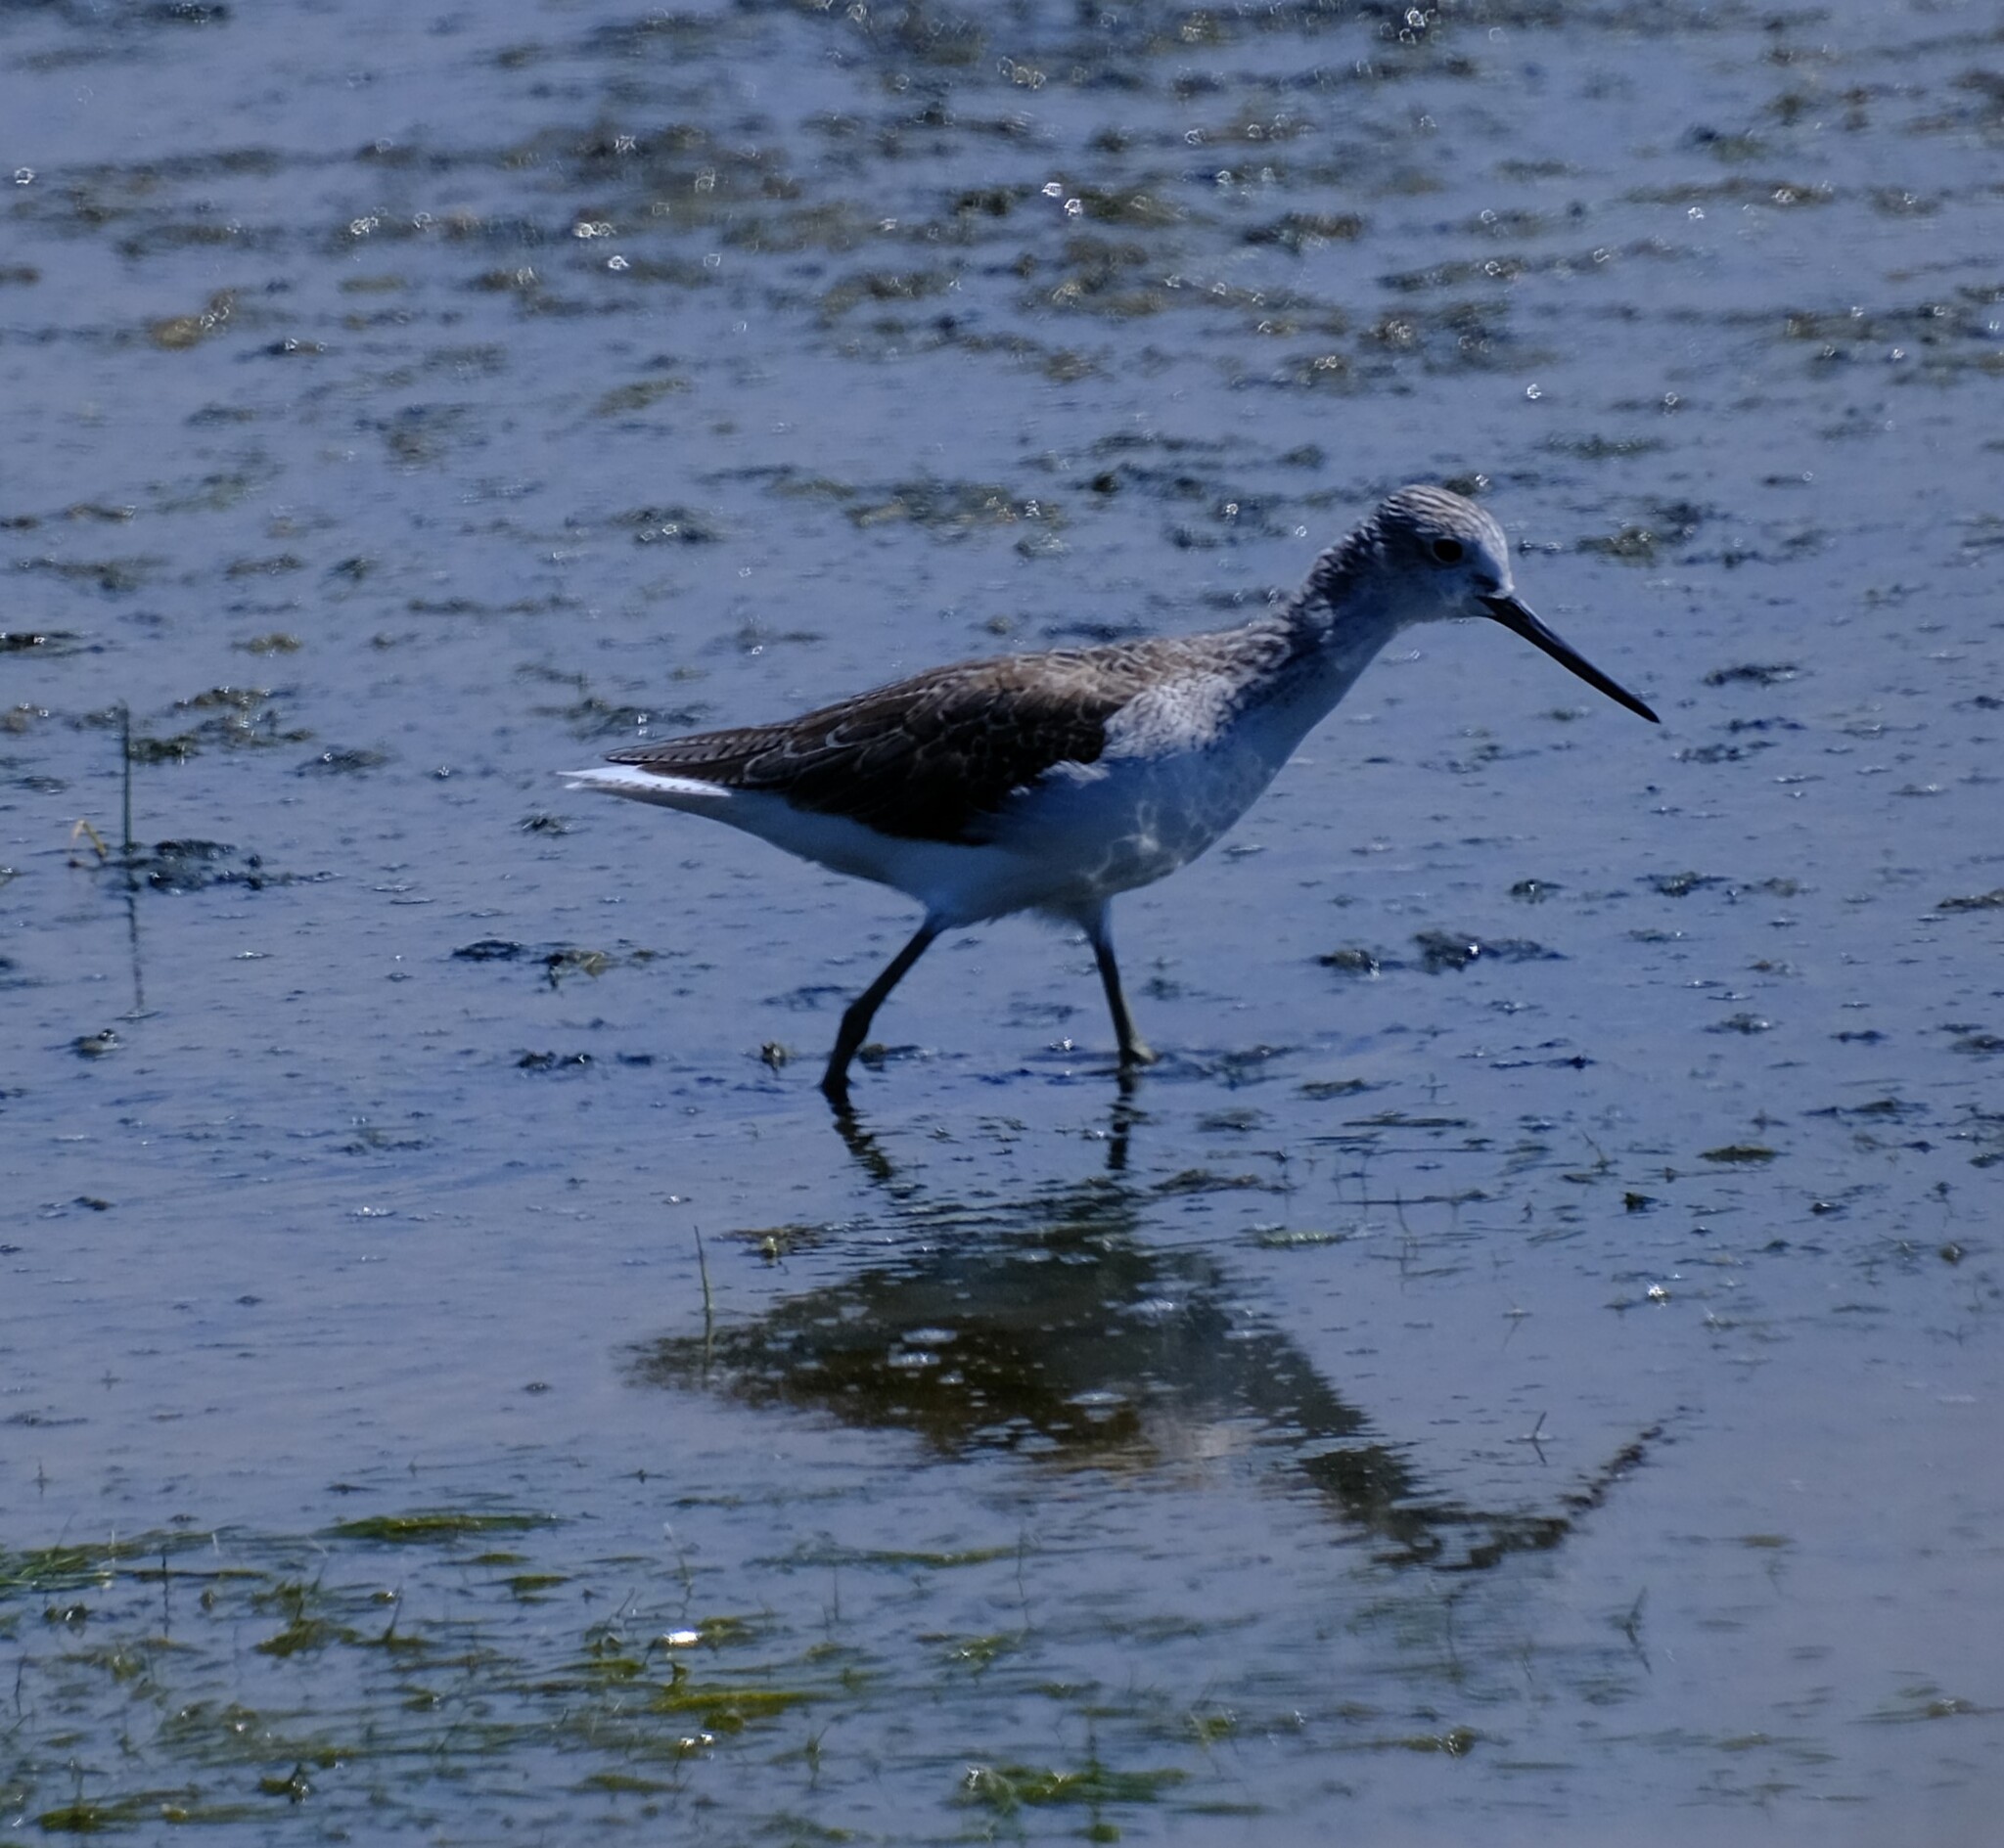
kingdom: Animalia
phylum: Chordata
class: Aves
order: Charadriiformes
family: Scolopacidae
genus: Tringa
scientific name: Tringa nebularia
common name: Common greenshank
